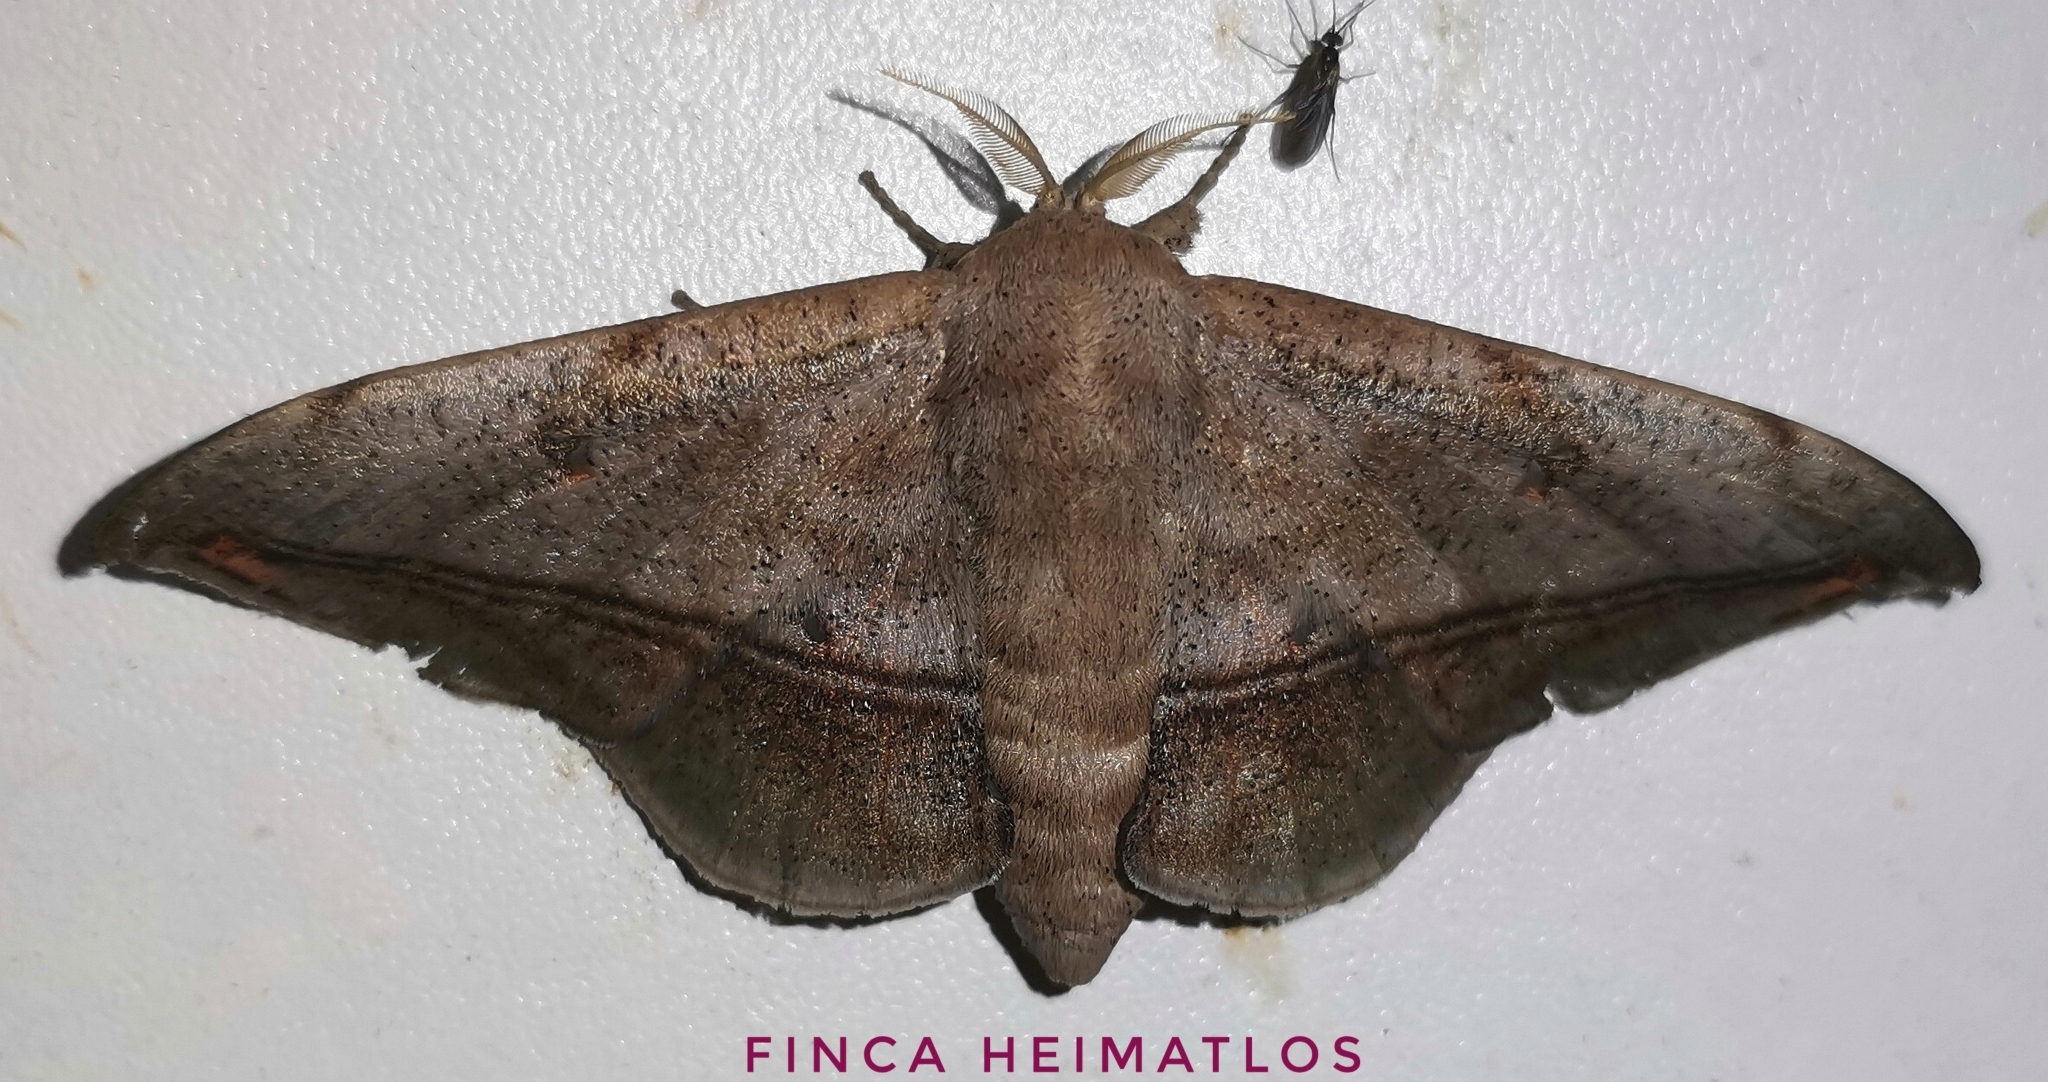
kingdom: Animalia
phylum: Arthropoda
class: Insecta
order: Lepidoptera
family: Mimallonidae
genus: Cicinnus
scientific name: Cicinnus fogia
